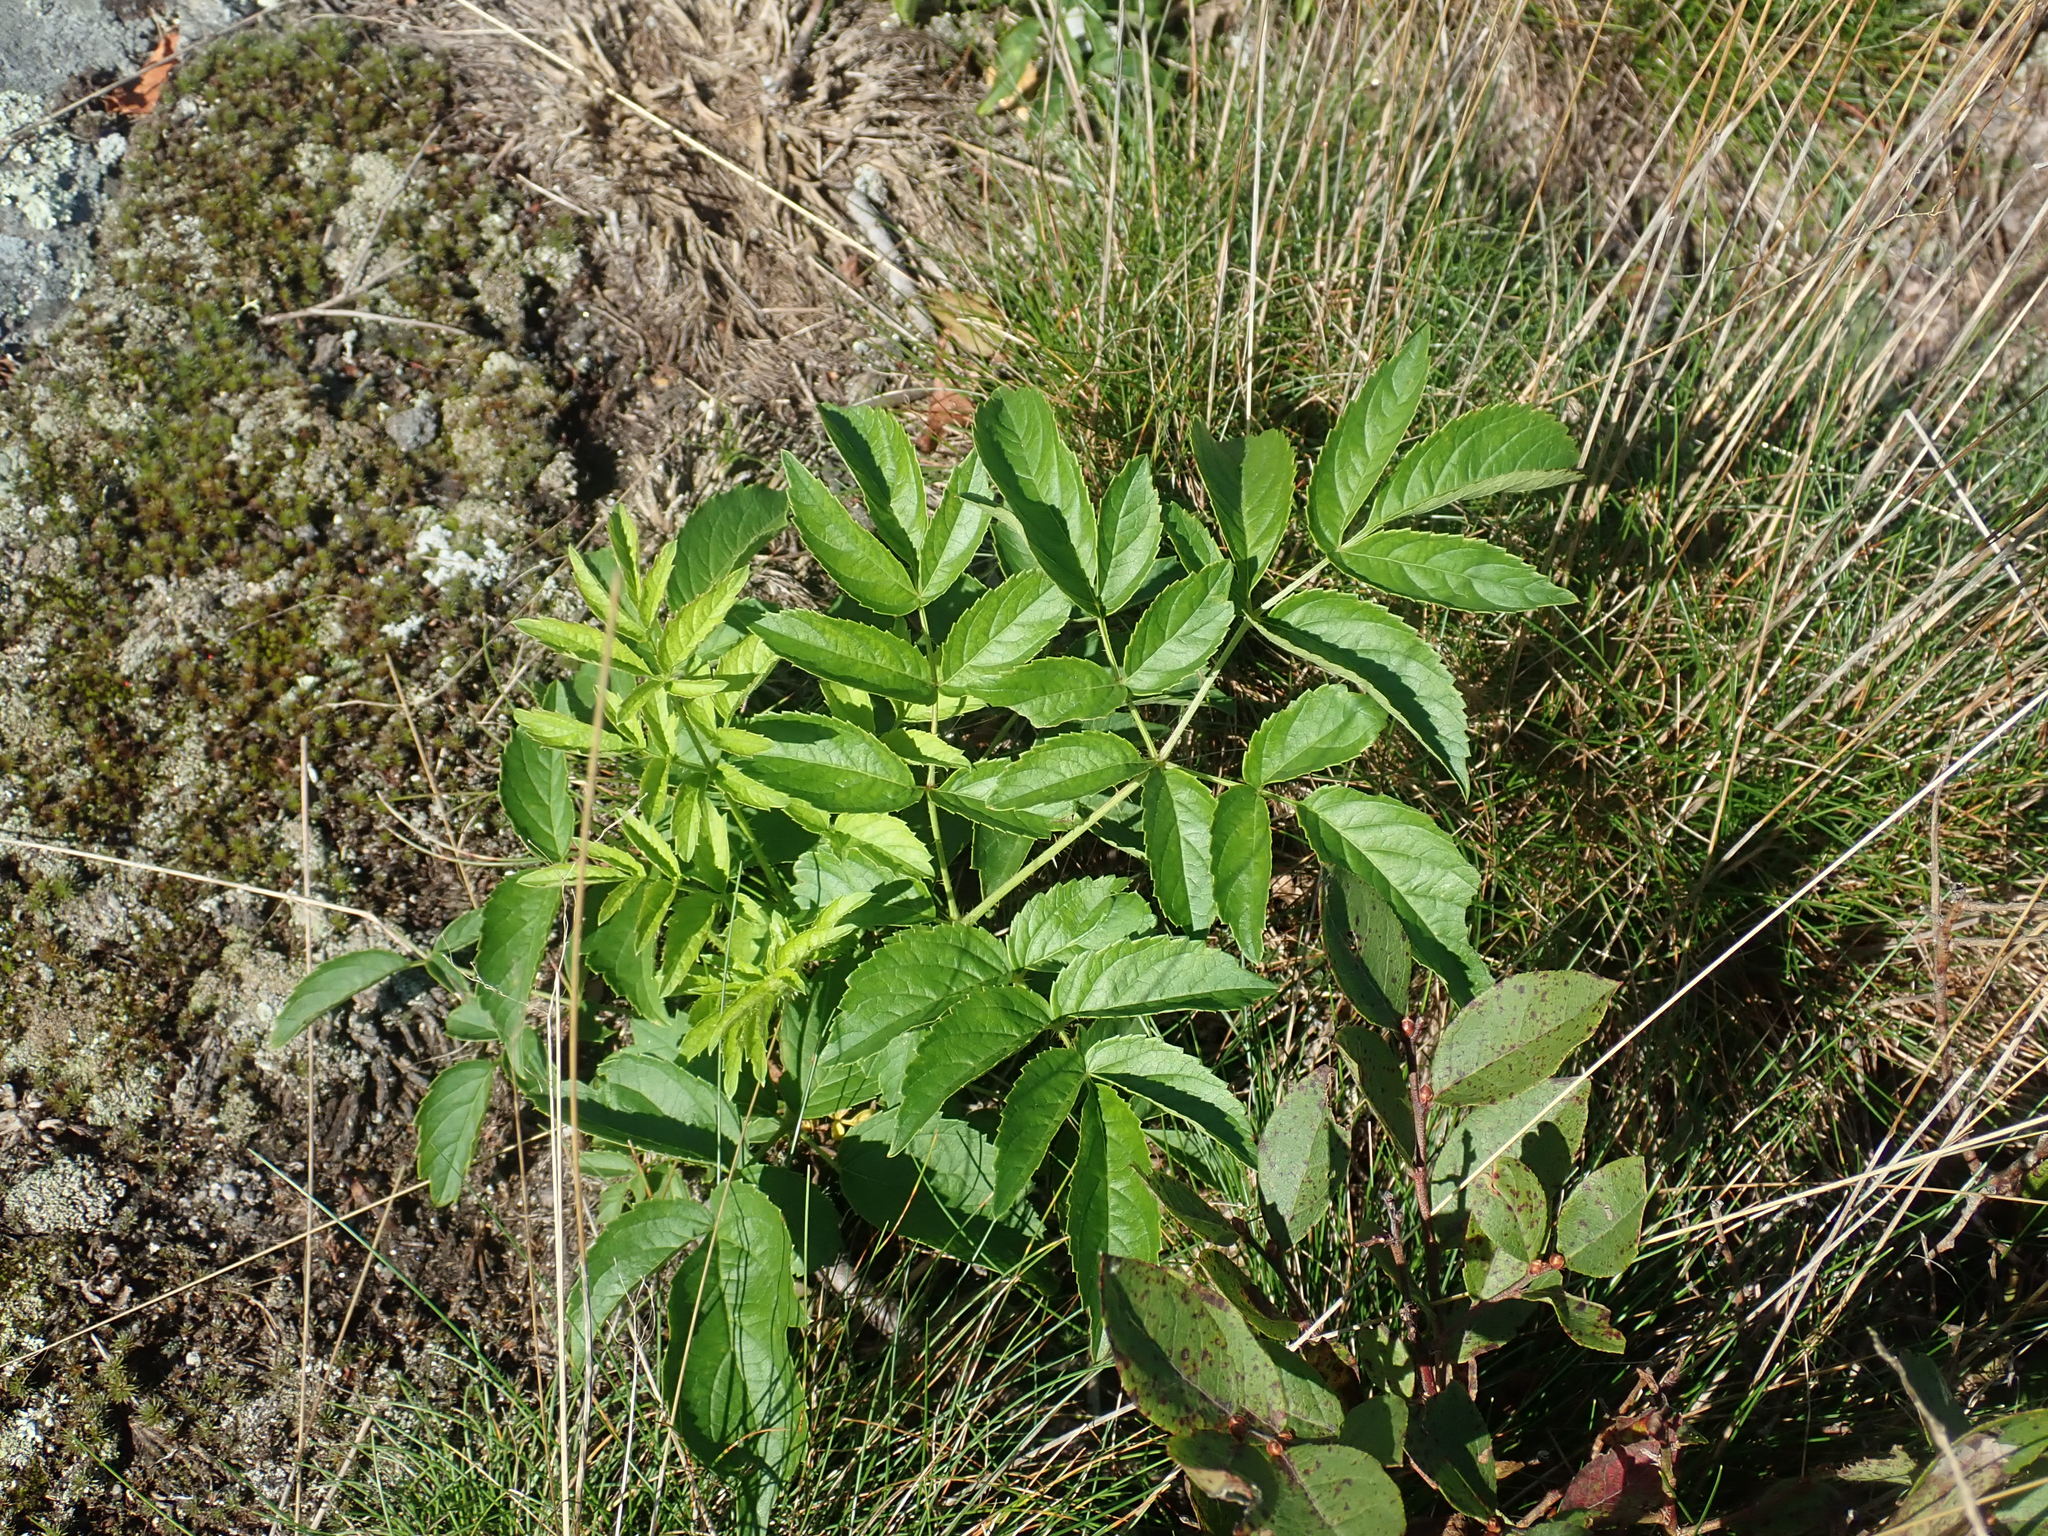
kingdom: Plantae
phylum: Tracheophyta
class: Magnoliopsida
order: Apiales
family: Araliaceae
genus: Aralia
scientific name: Aralia hispida
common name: Bristly sarsaparilla
